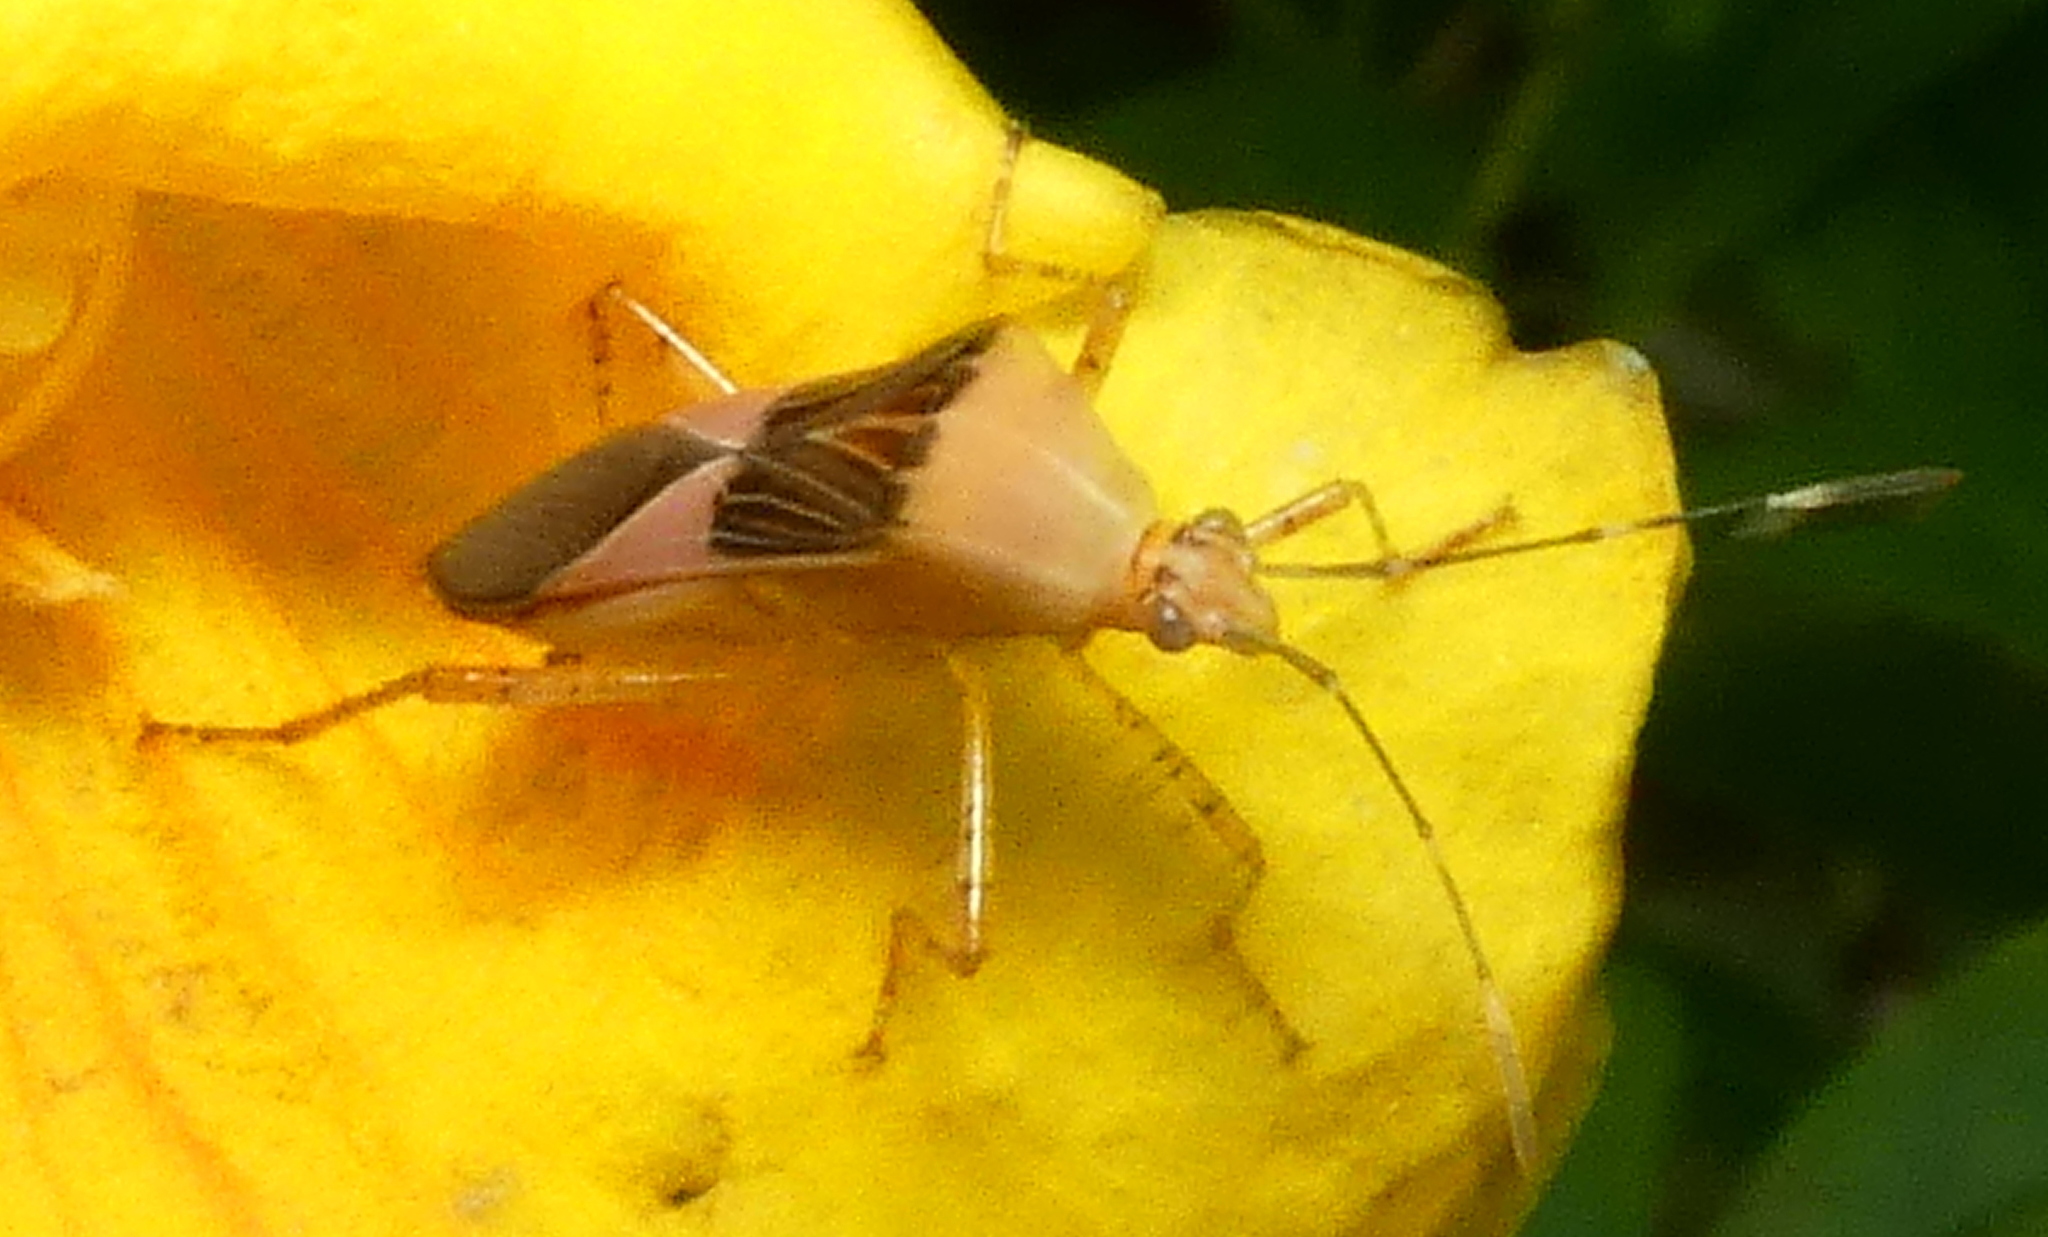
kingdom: Animalia
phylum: Arthropoda
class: Insecta
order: Hemiptera
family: Coreidae
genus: Hypselonotus
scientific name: Hypselonotus fulvus
